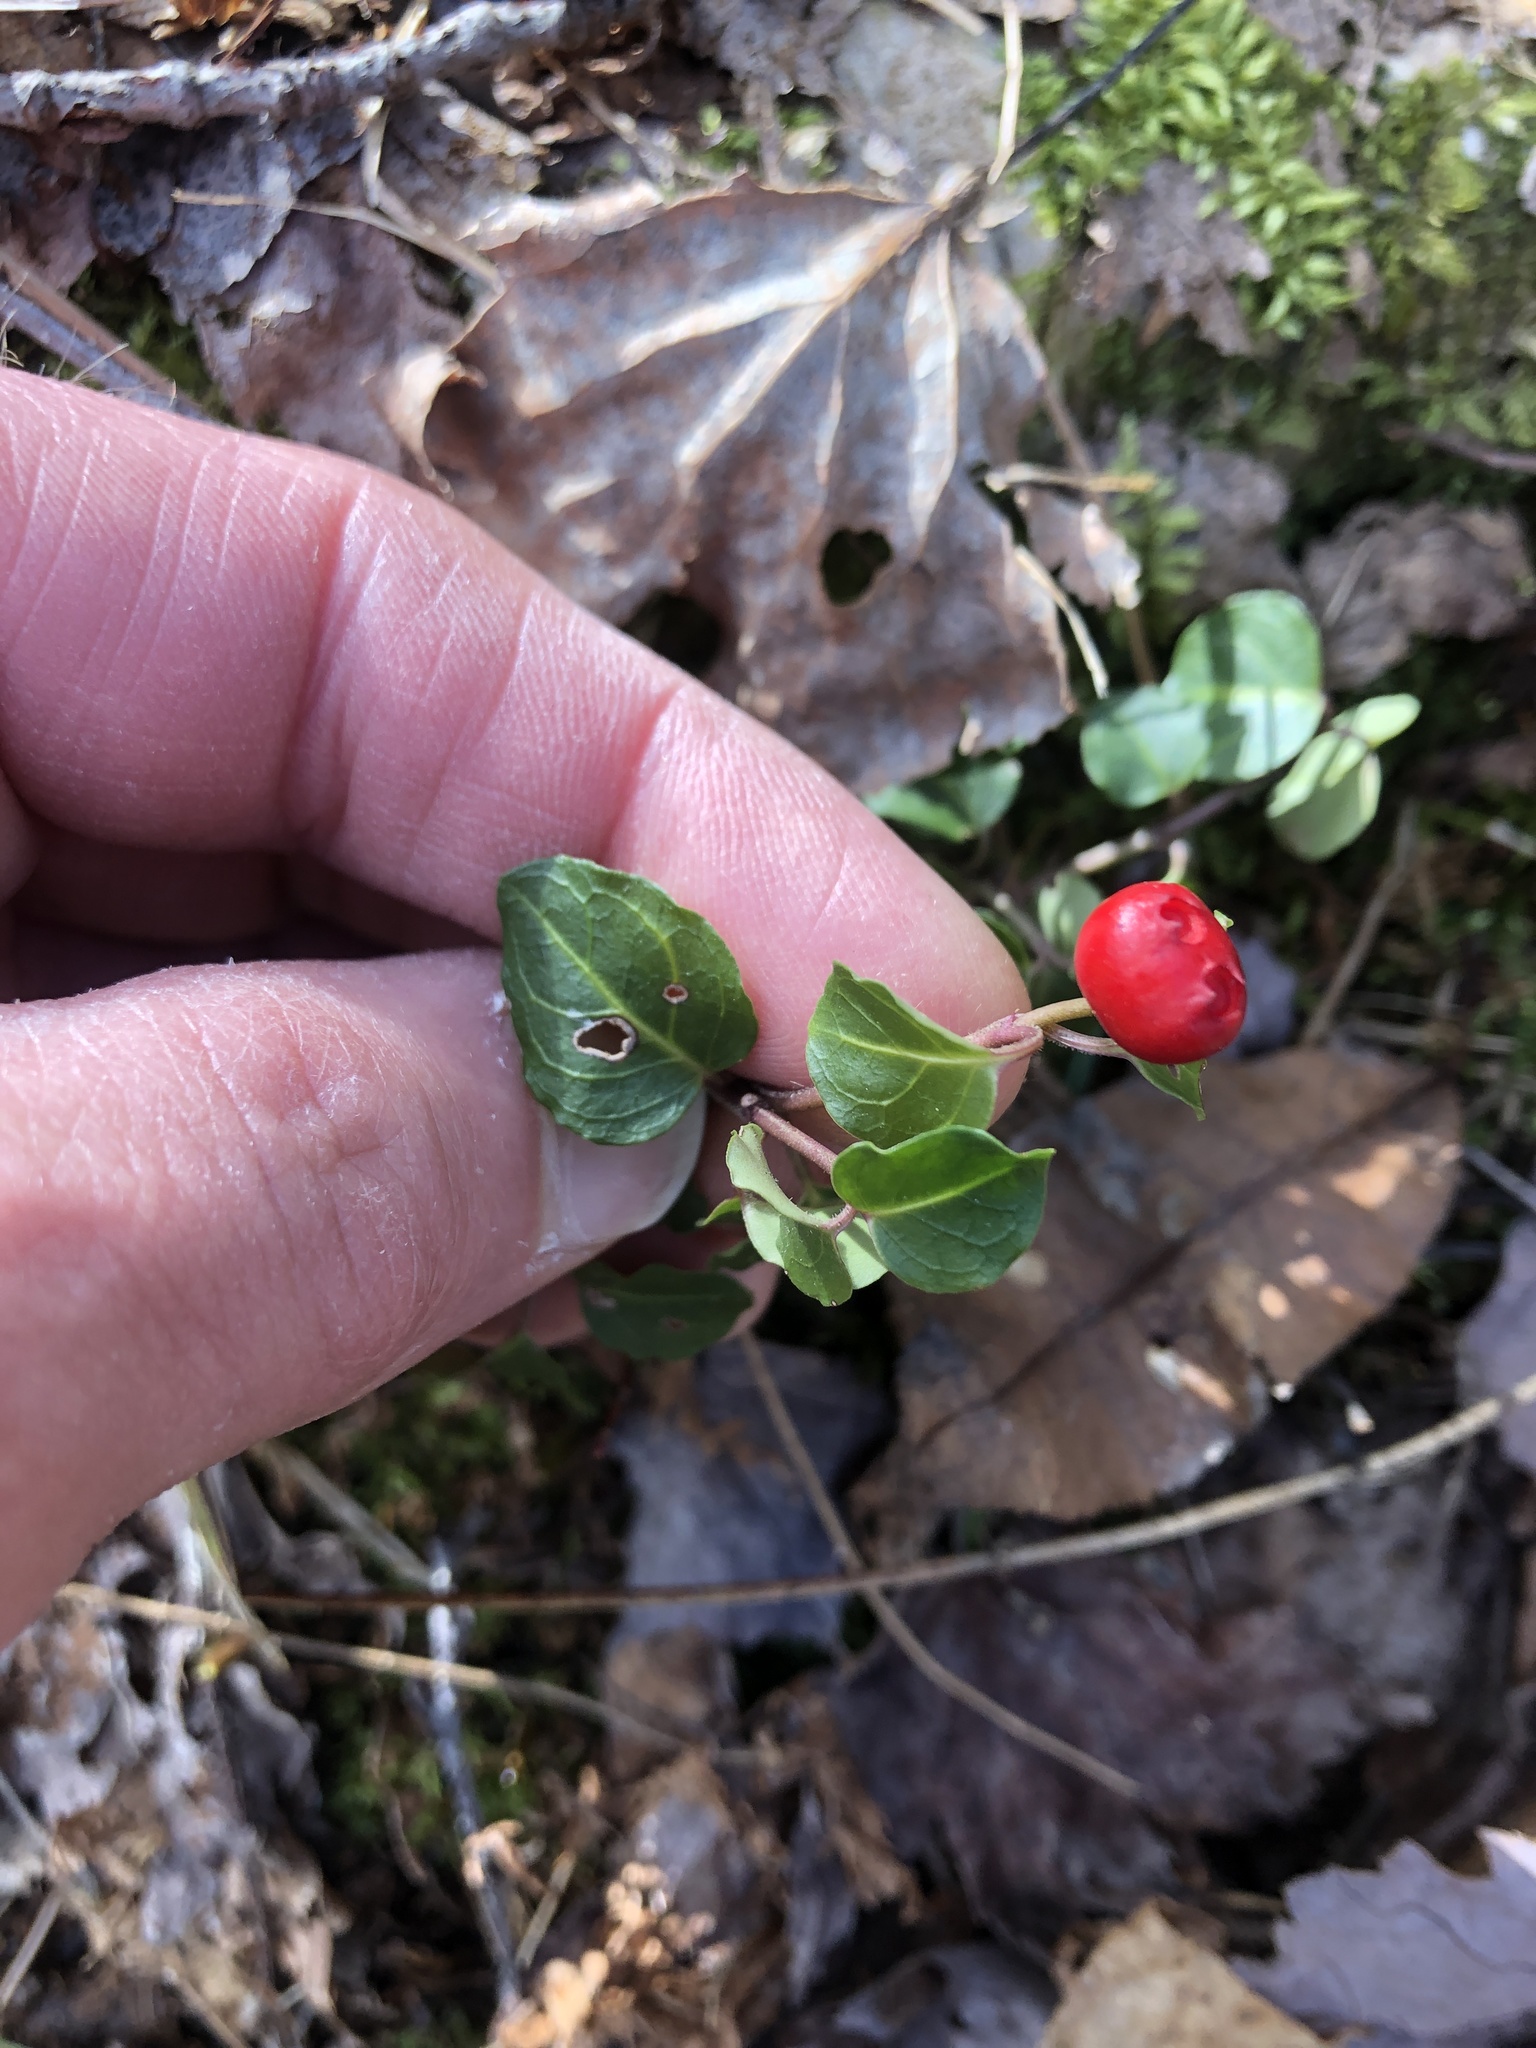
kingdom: Plantae
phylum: Tracheophyta
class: Magnoliopsida
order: Gentianales
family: Rubiaceae
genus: Mitchella
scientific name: Mitchella repens
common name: Partridge-berry
